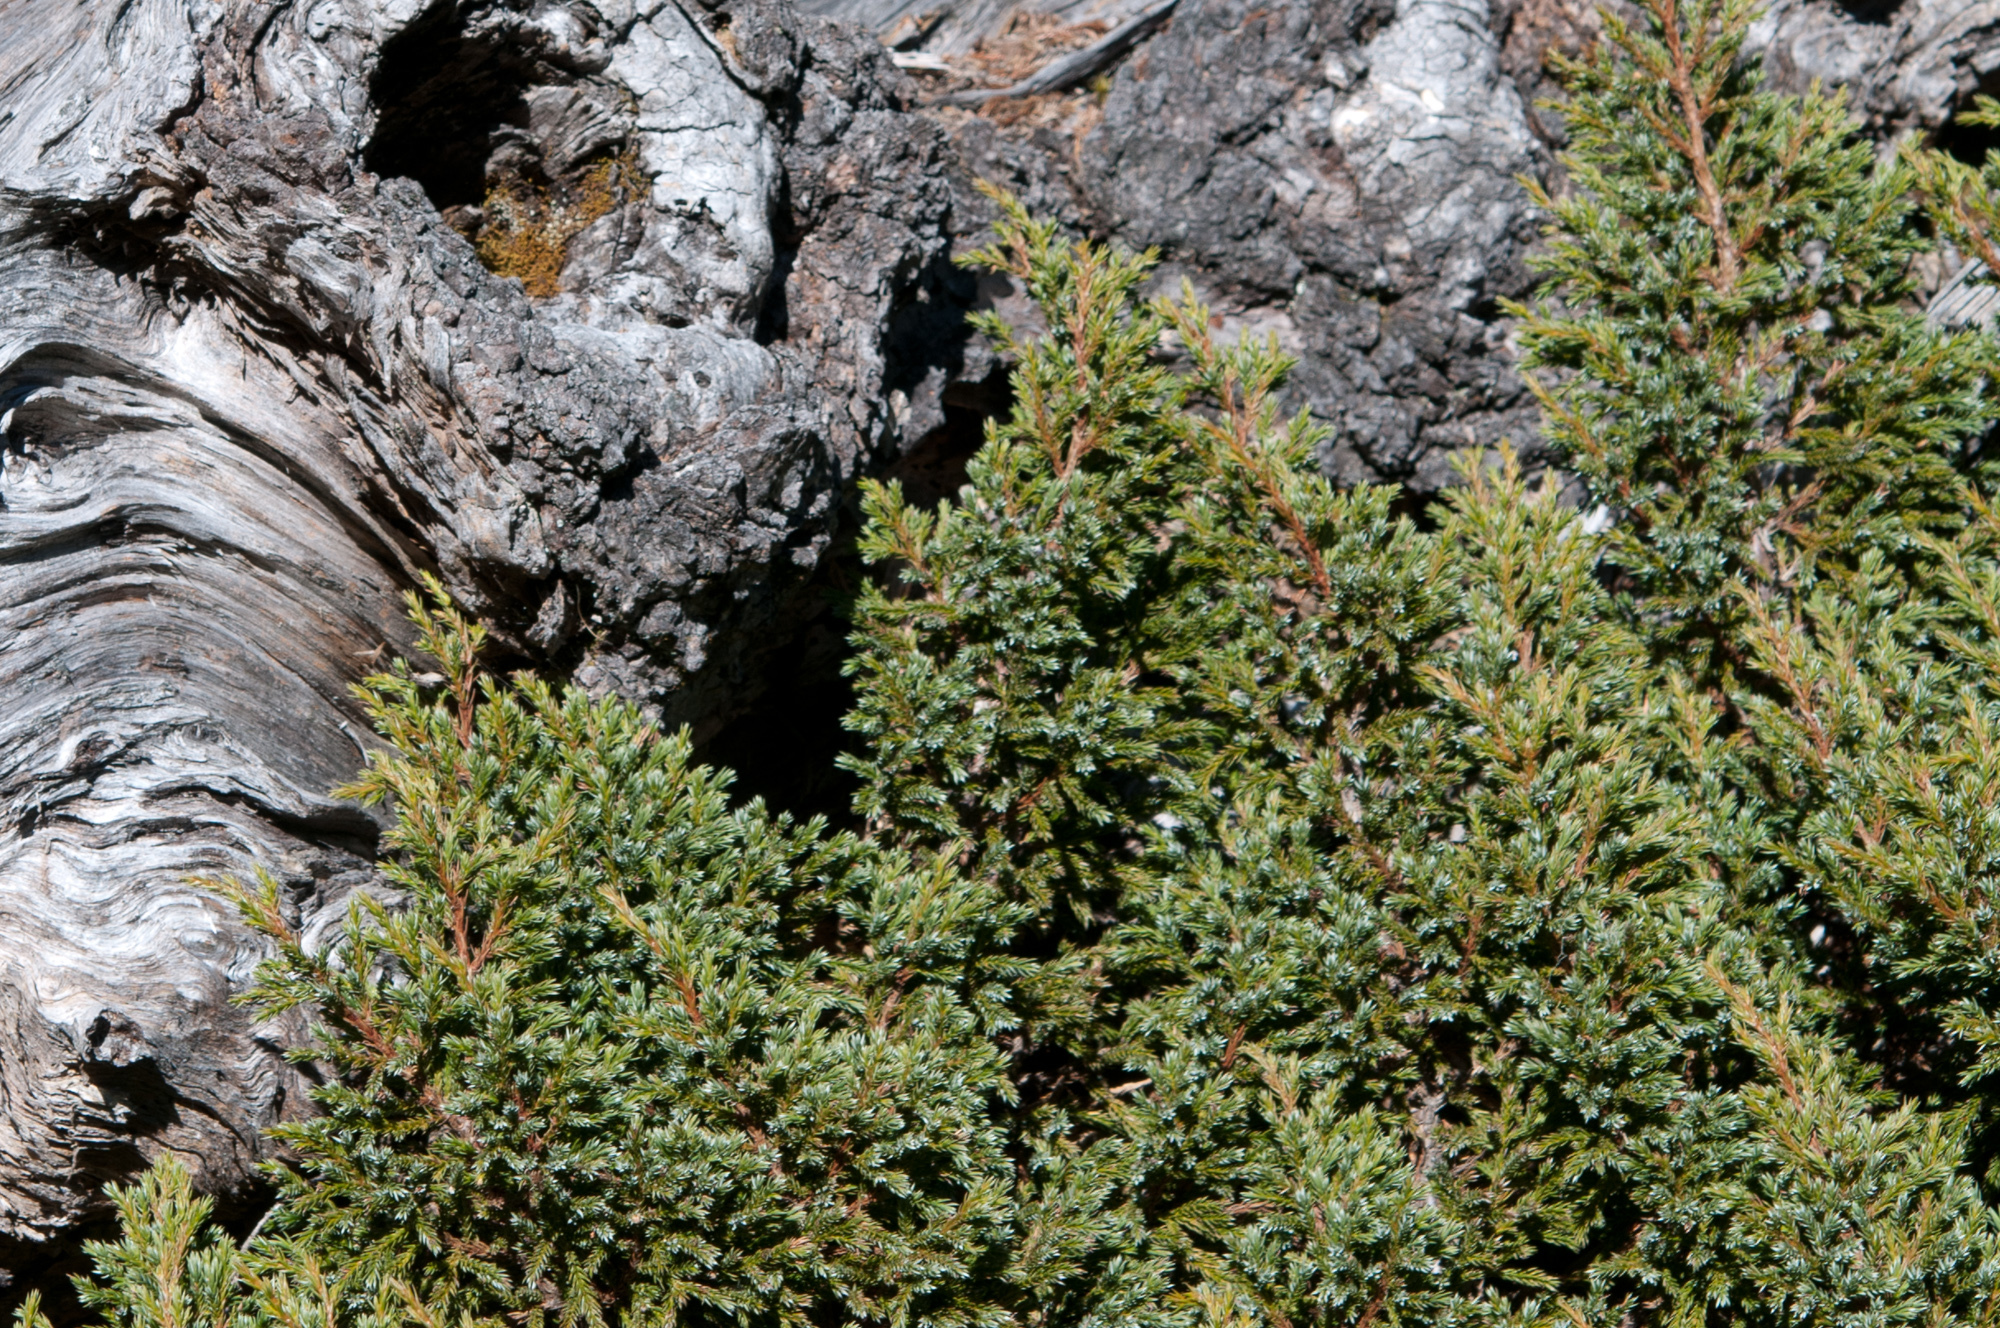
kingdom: Plantae
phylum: Tracheophyta
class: Pinopsida
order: Pinales
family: Cupressaceae
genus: Juniperus
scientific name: Juniperus squamata
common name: Flaky juniper
